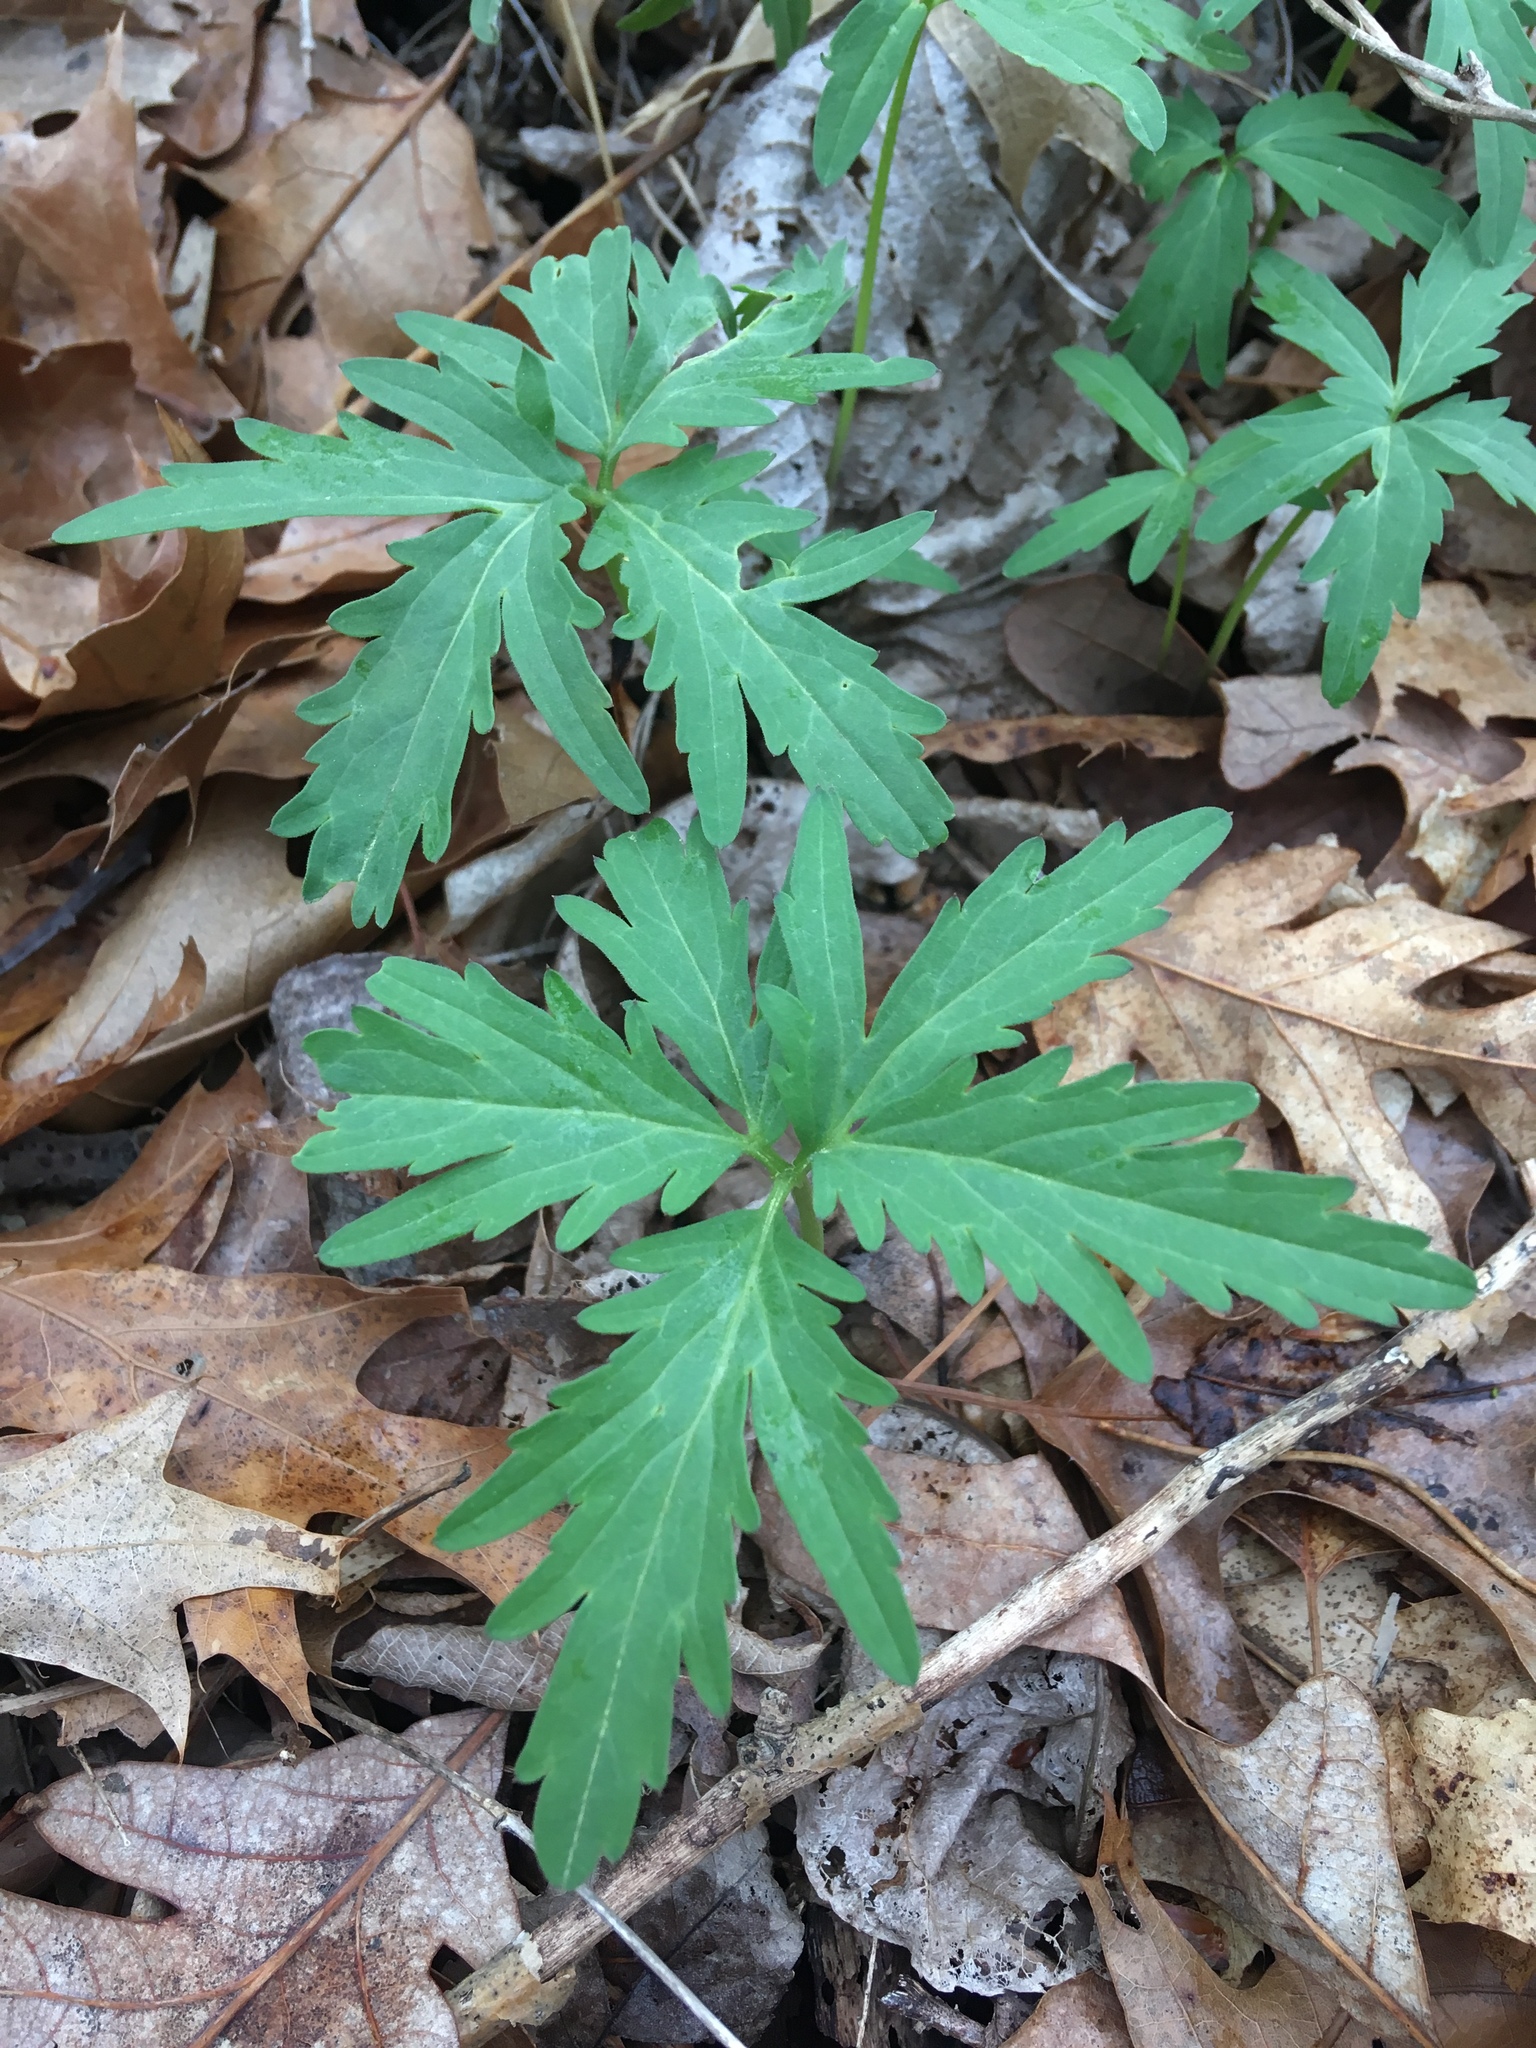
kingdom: Plantae
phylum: Tracheophyta
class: Magnoliopsida
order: Brassicales
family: Brassicaceae
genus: Cardamine
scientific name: Cardamine concatenata
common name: Cut-leaf toothcup
